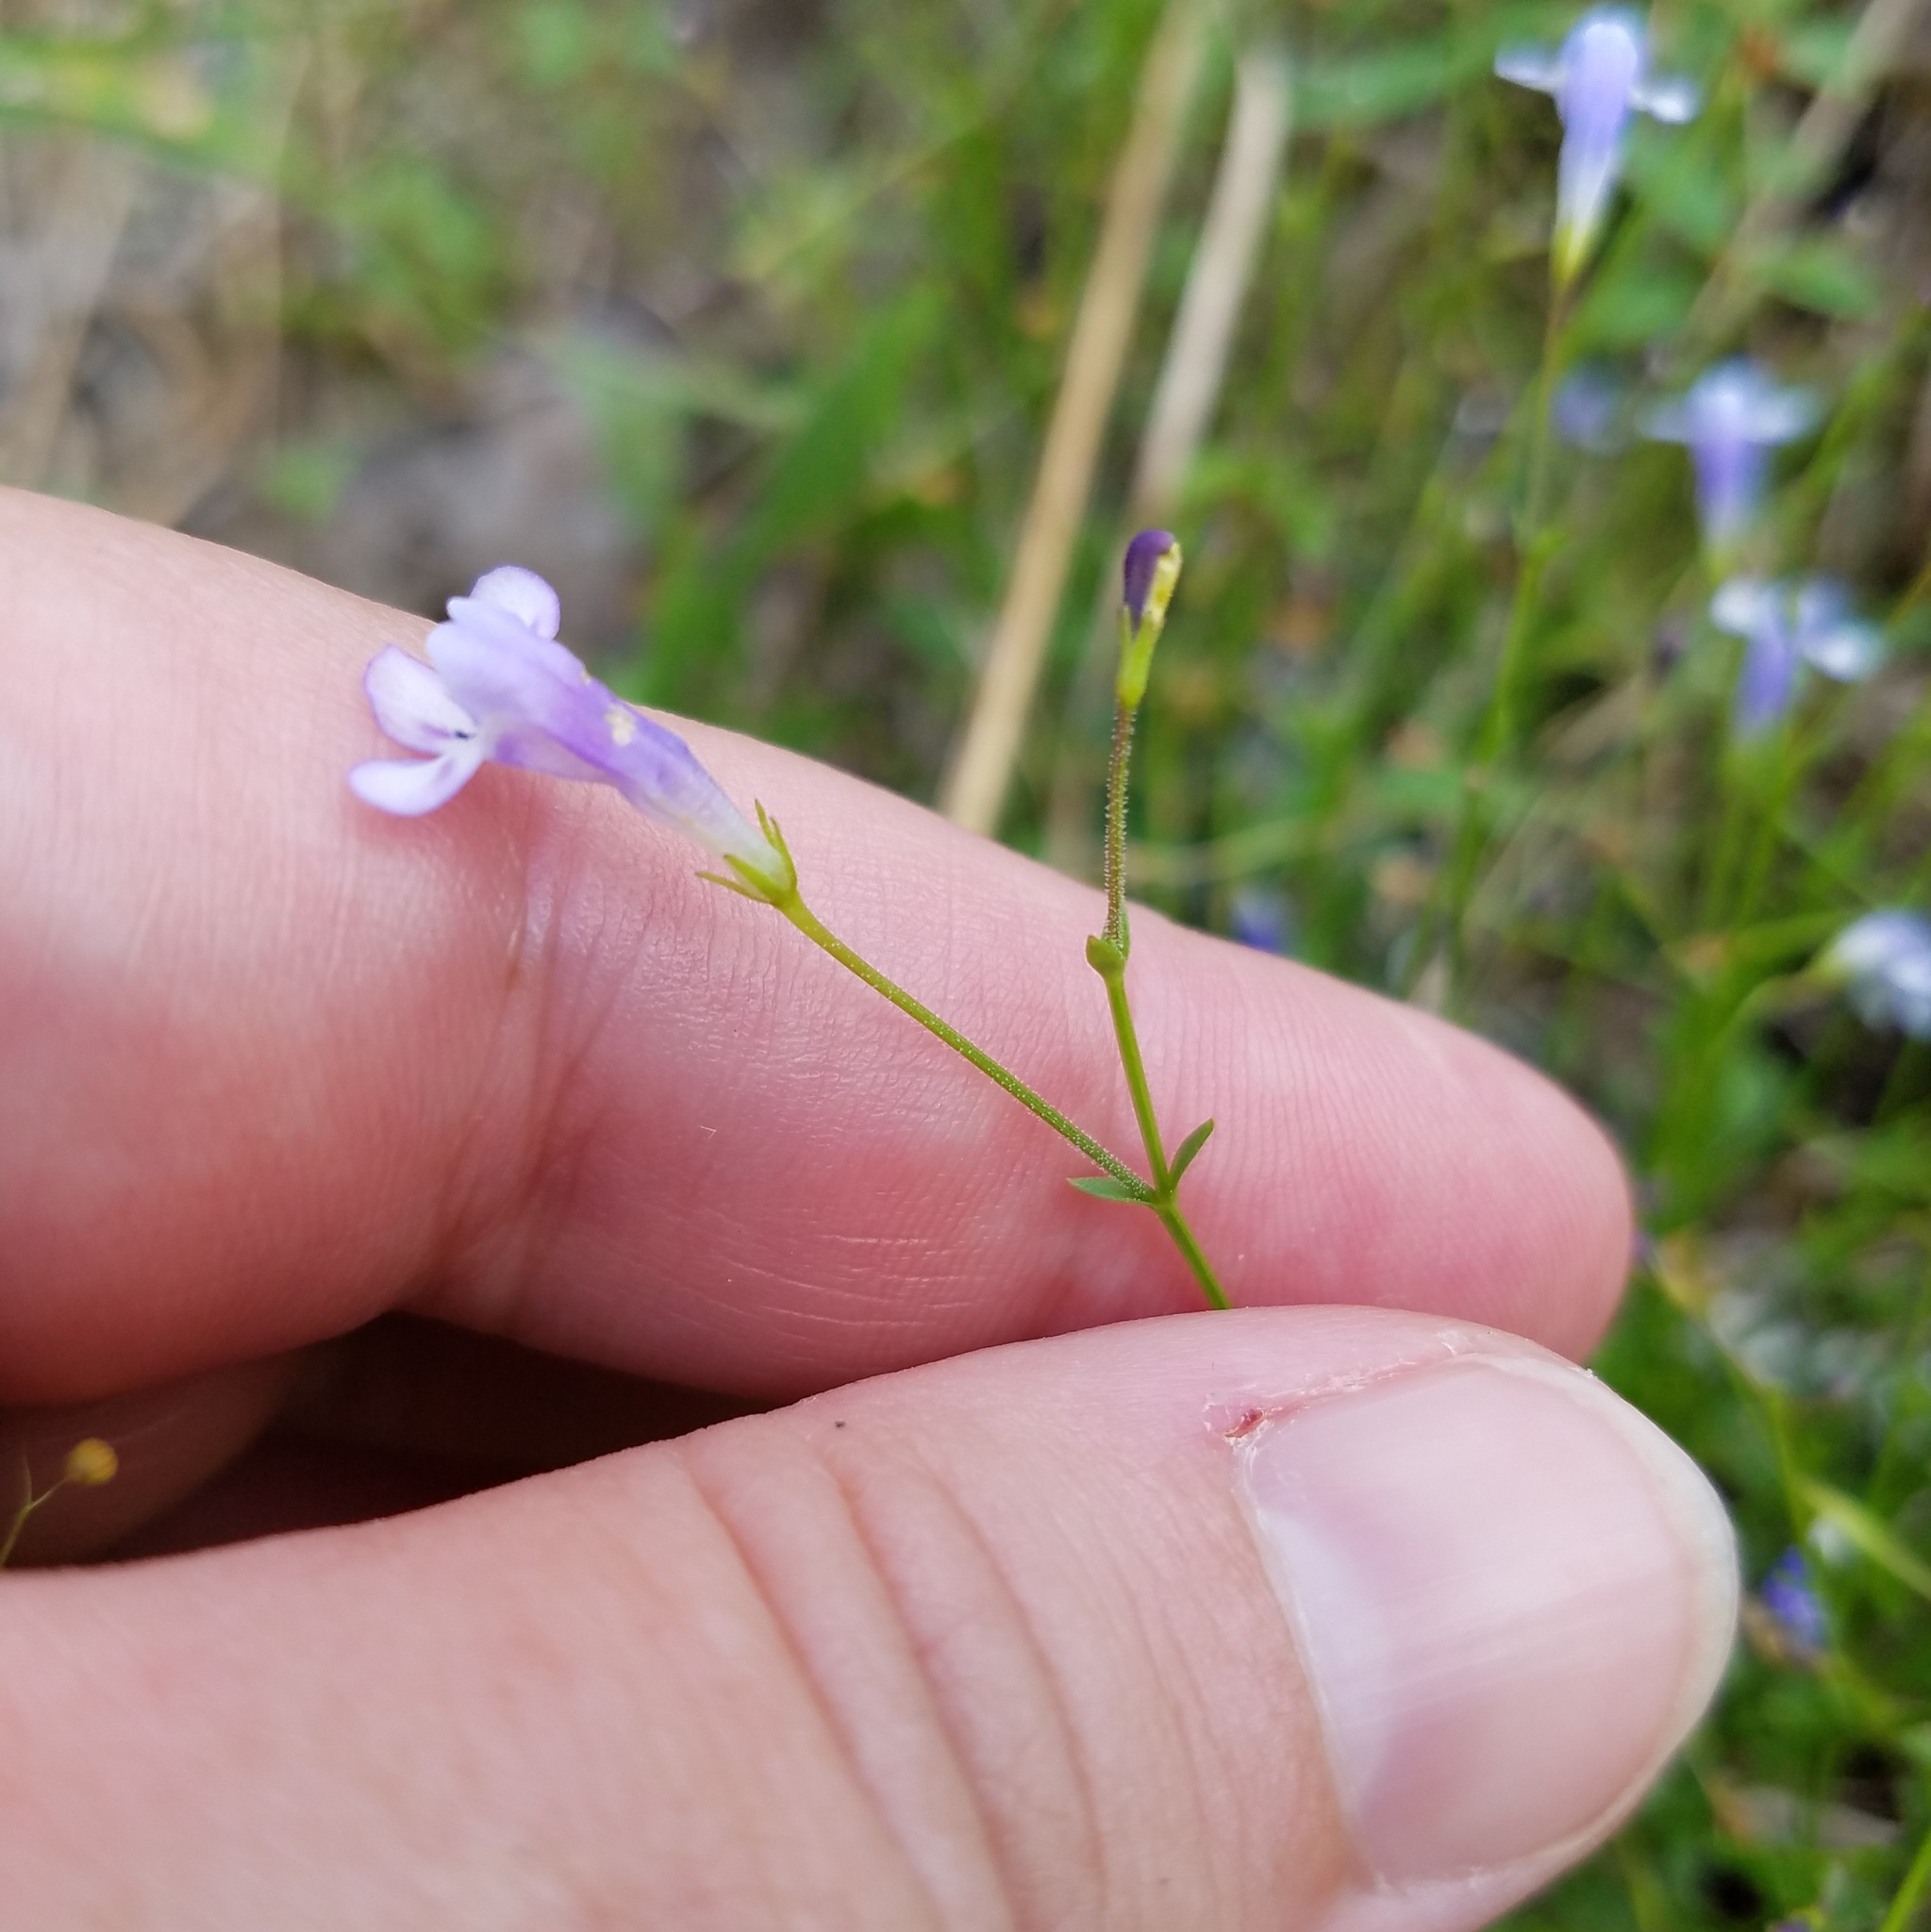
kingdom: Plantae
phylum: Tracheophyta
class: Magnoliopsida
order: Lamiales
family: Linderniaceae
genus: Lindernia
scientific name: Lindernia monticola
